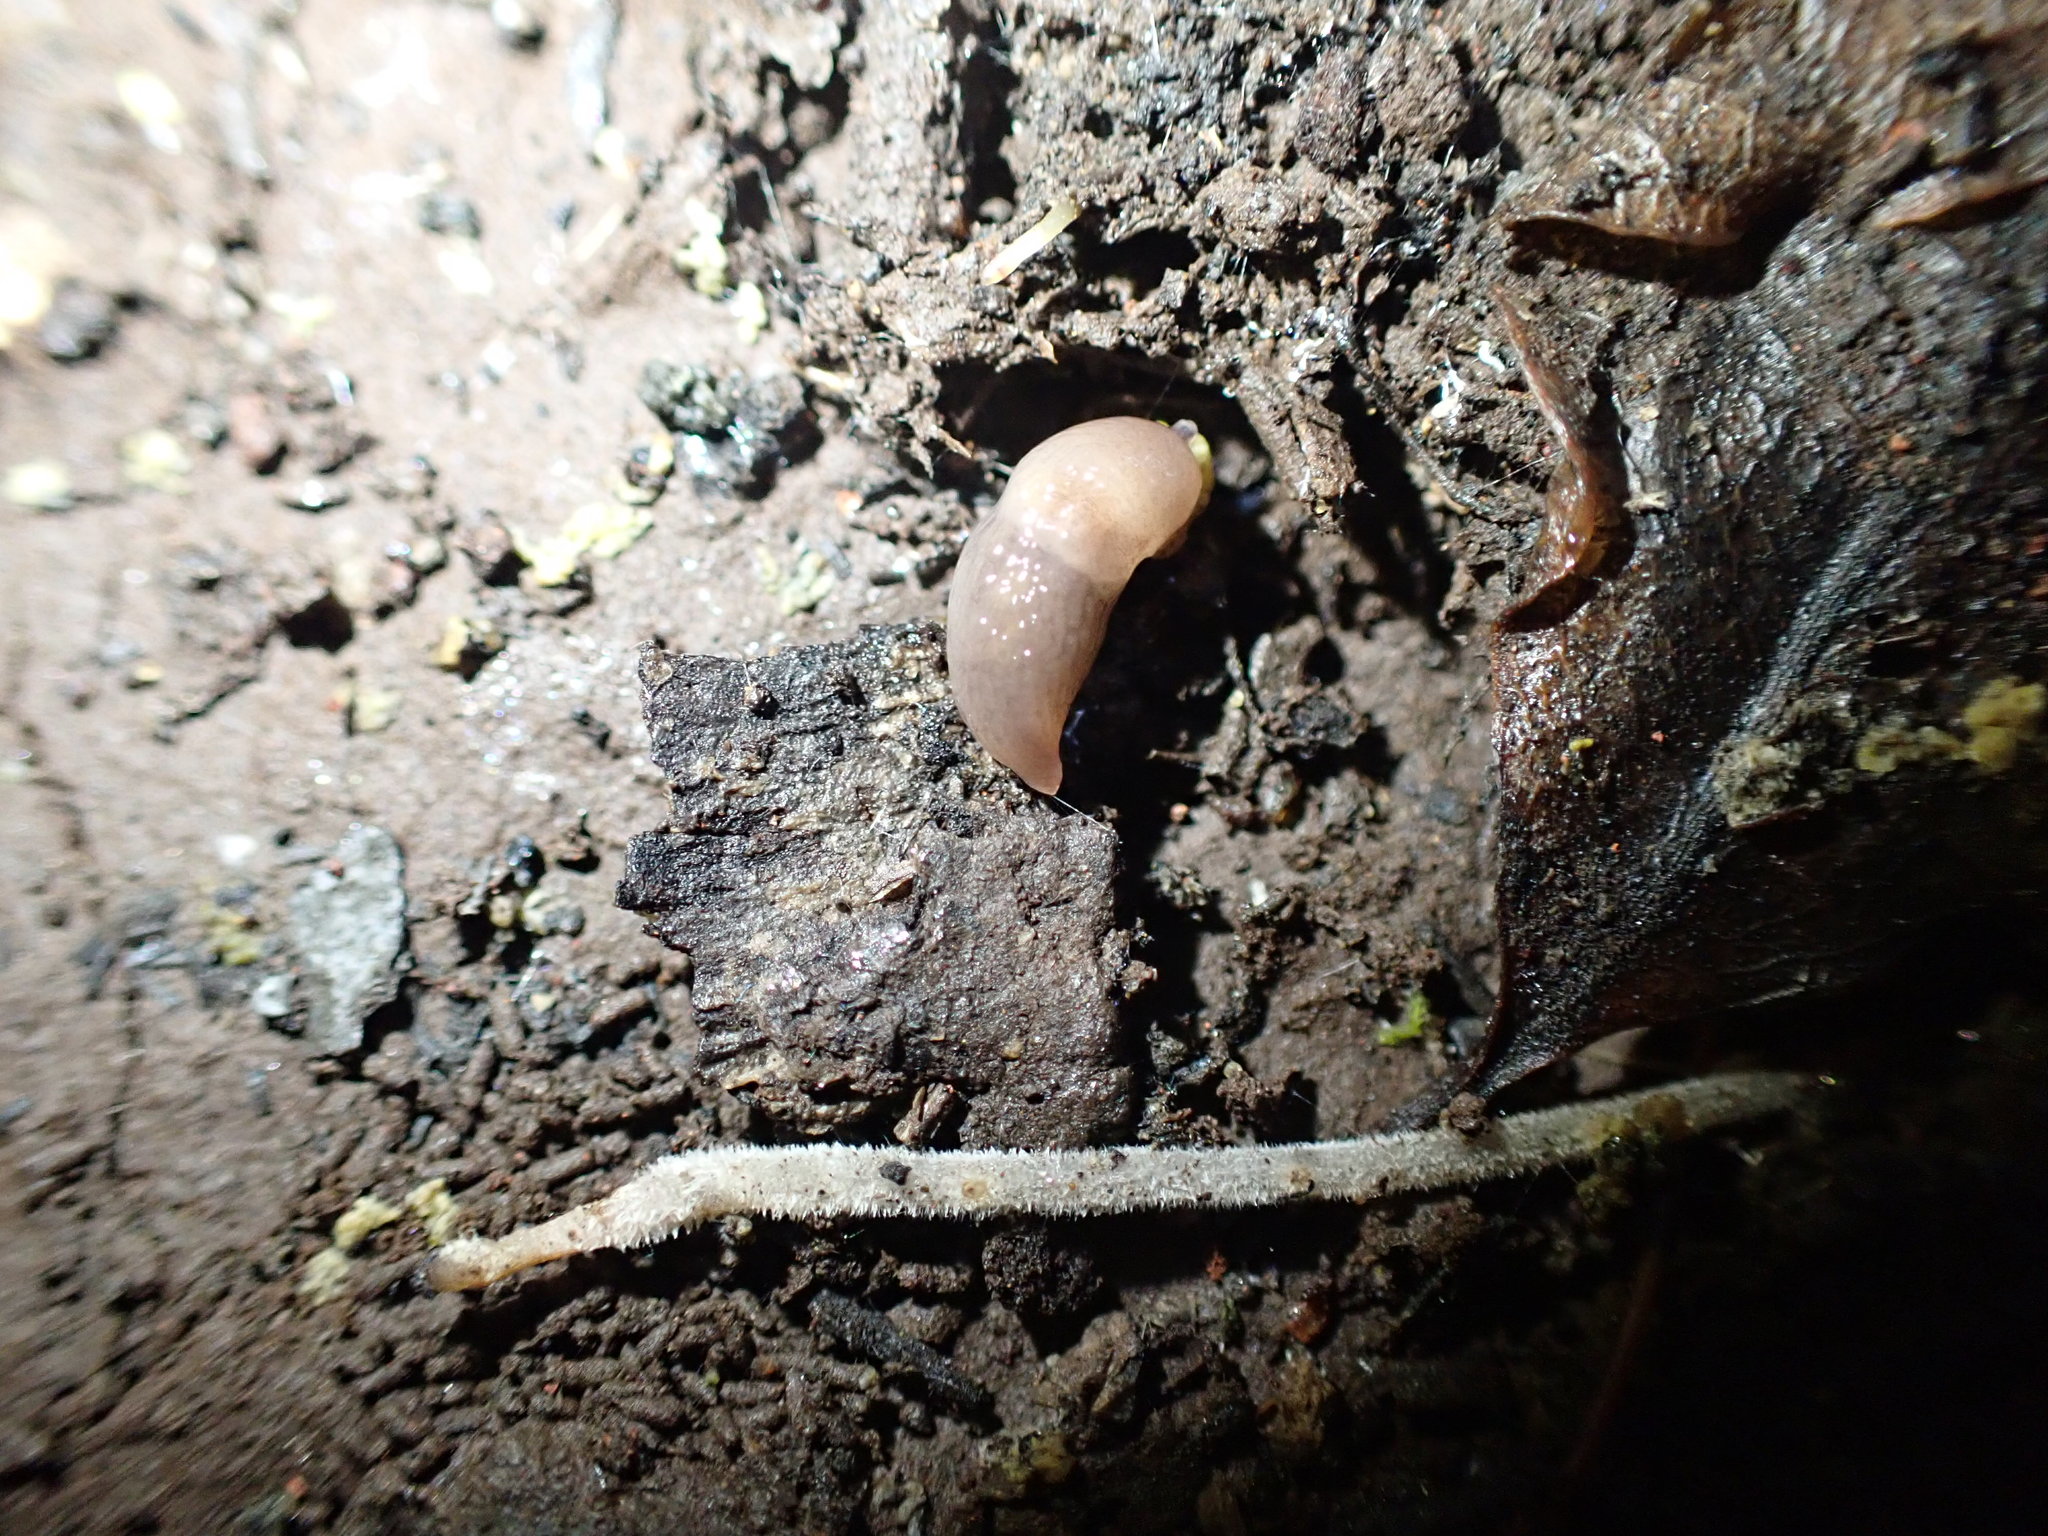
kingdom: Animalia
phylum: Mollusca
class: Gastropoda
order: Stylommatophora
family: Agriolimacidae
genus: Deroceras
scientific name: Deroceras reticulatum
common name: Gray field slug
